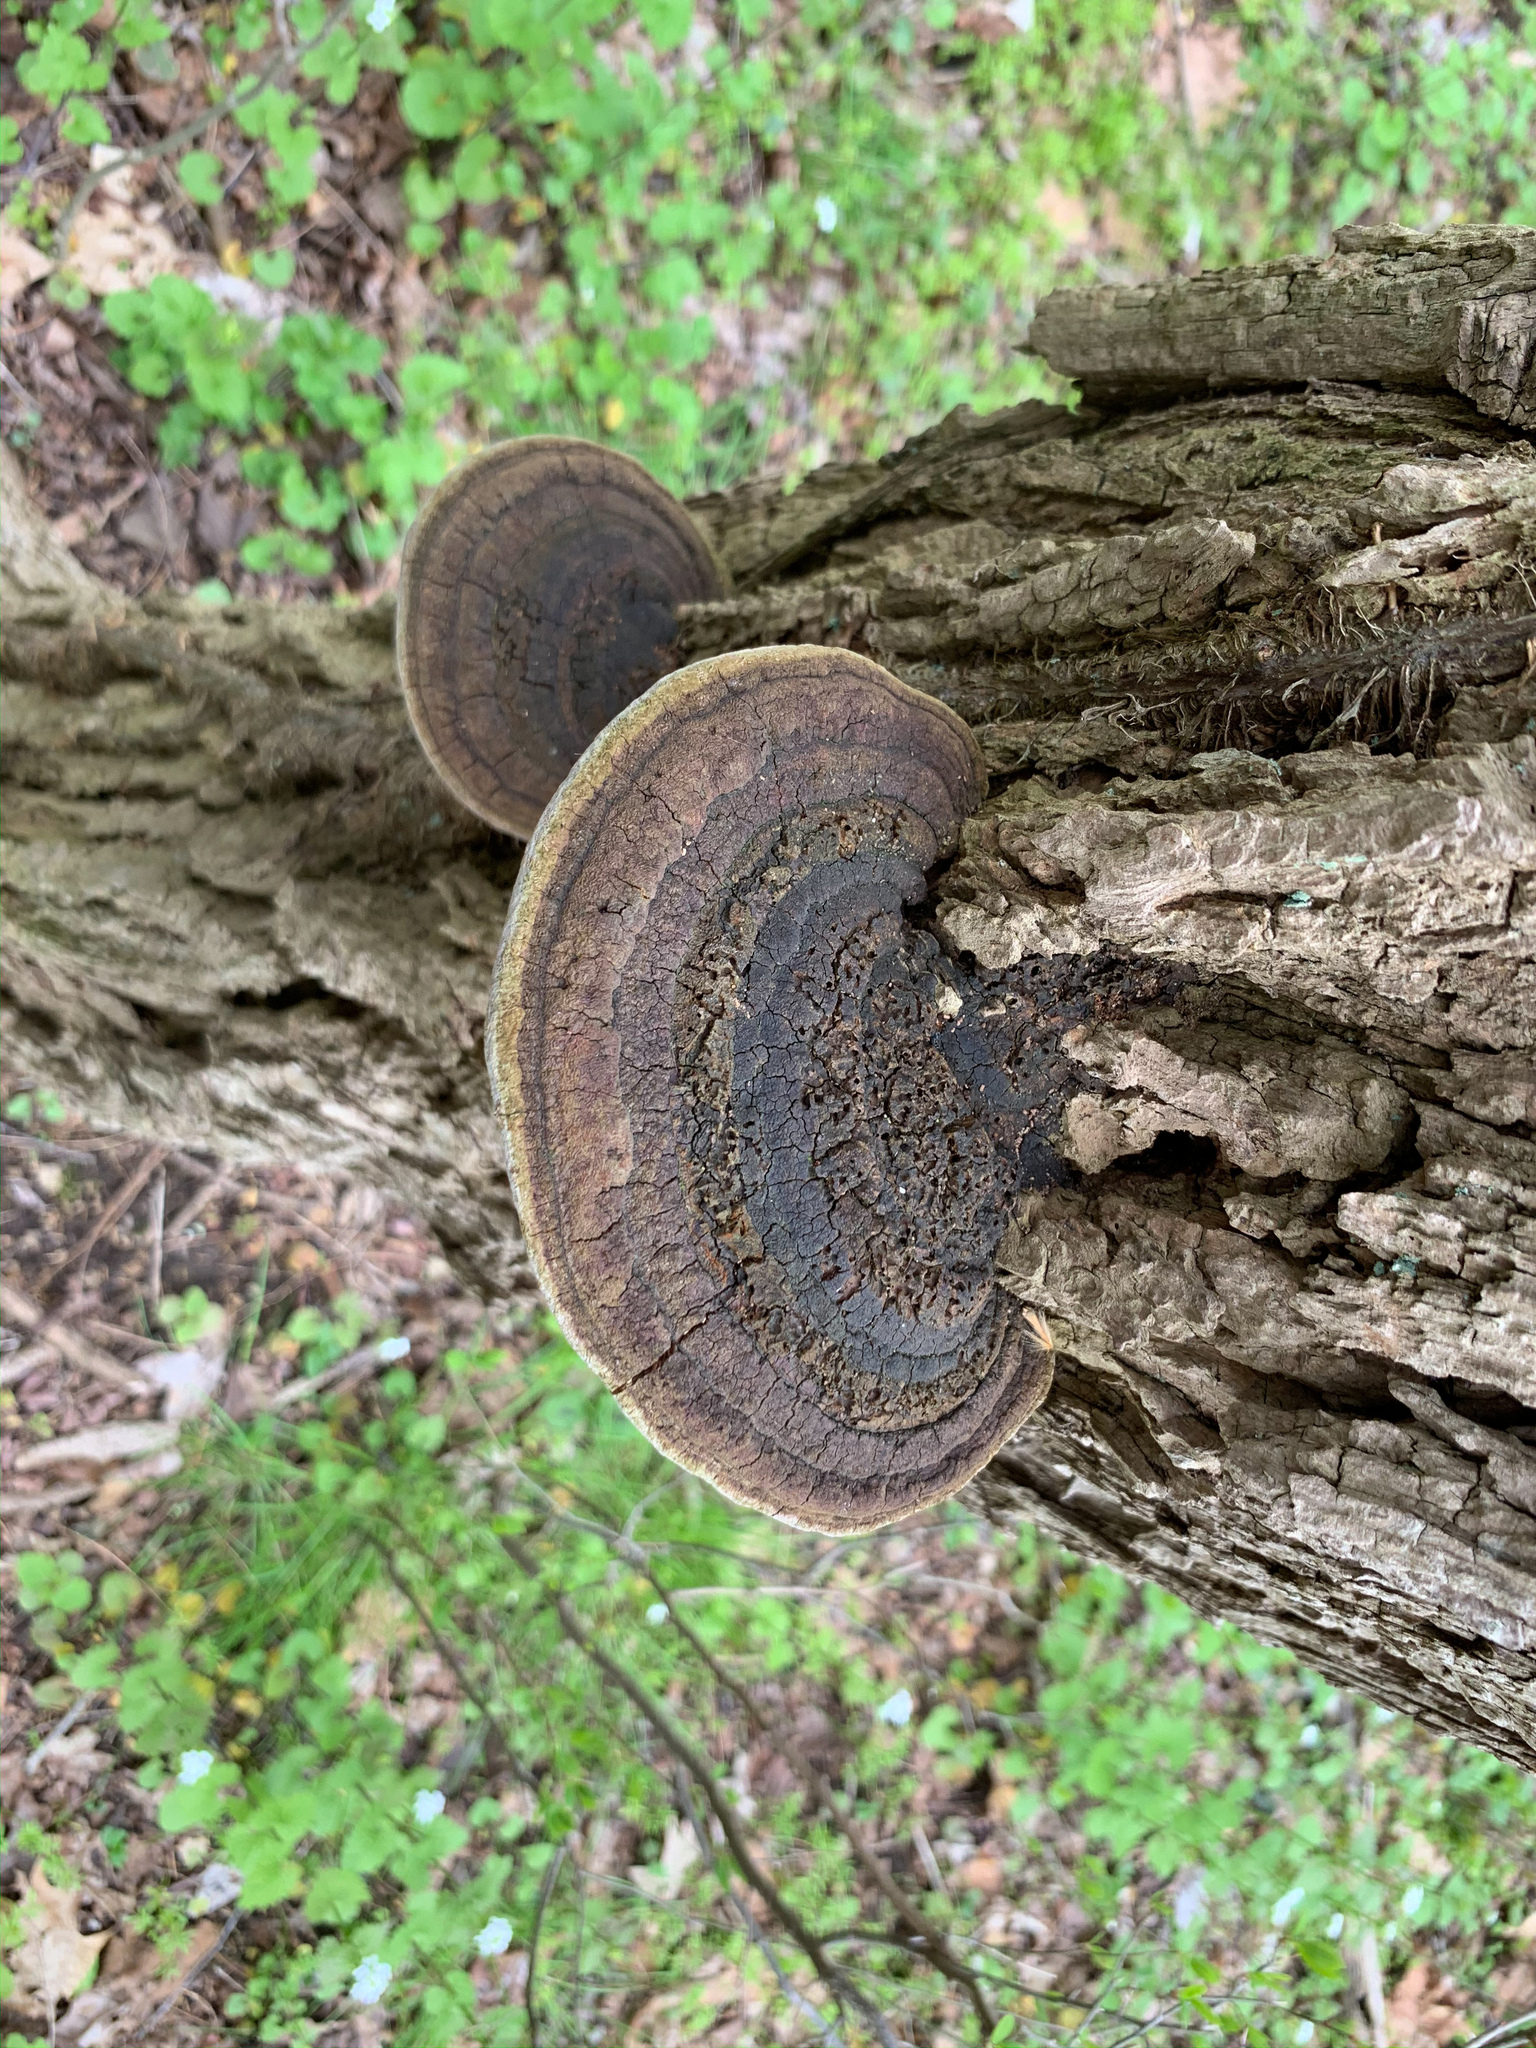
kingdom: Fungi
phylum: Basidiomycota
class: Agaricomycetes
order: Hymenochaetales
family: Hymenochaetaceae
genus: Phellinus
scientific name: Phellinus robiniae
